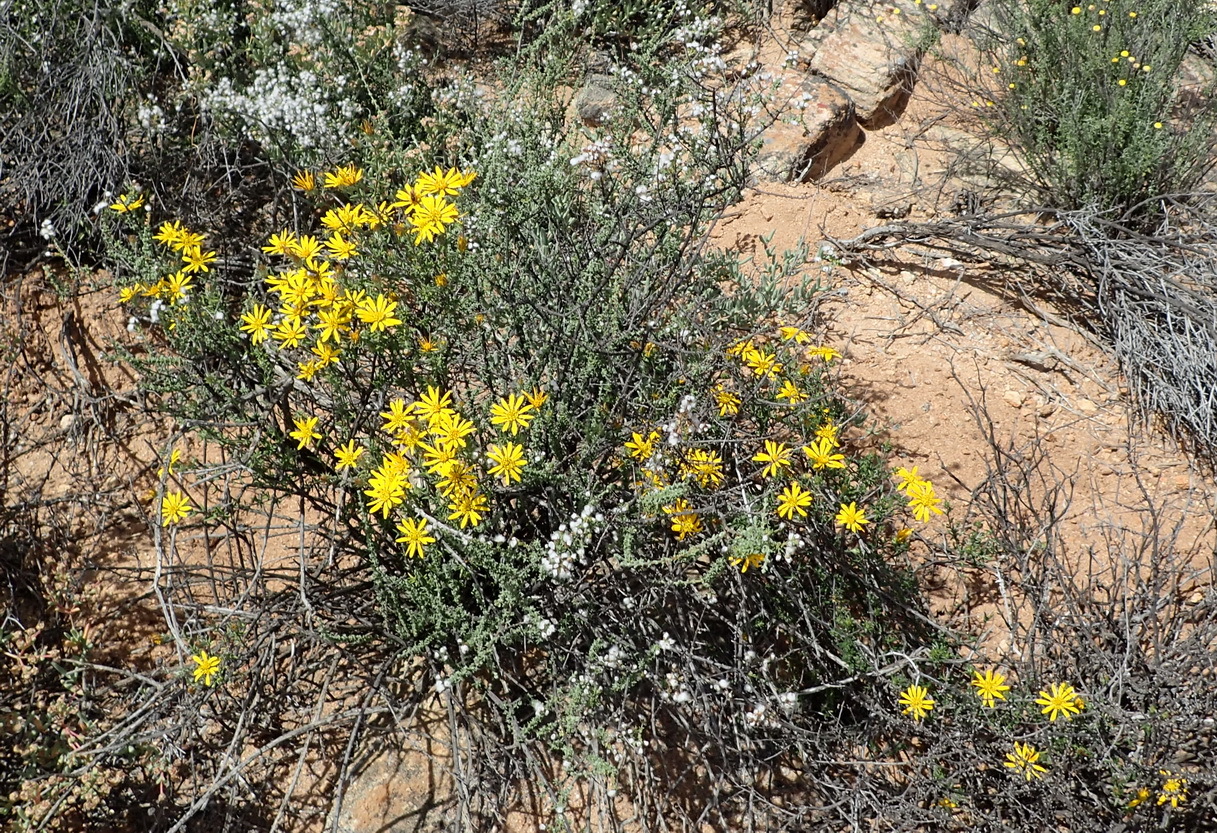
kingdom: Plantae
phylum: Tracheophyta
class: Magnoliopsida
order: Asterales
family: Asteraceae
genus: Gorteria
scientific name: Gorteria alienata
